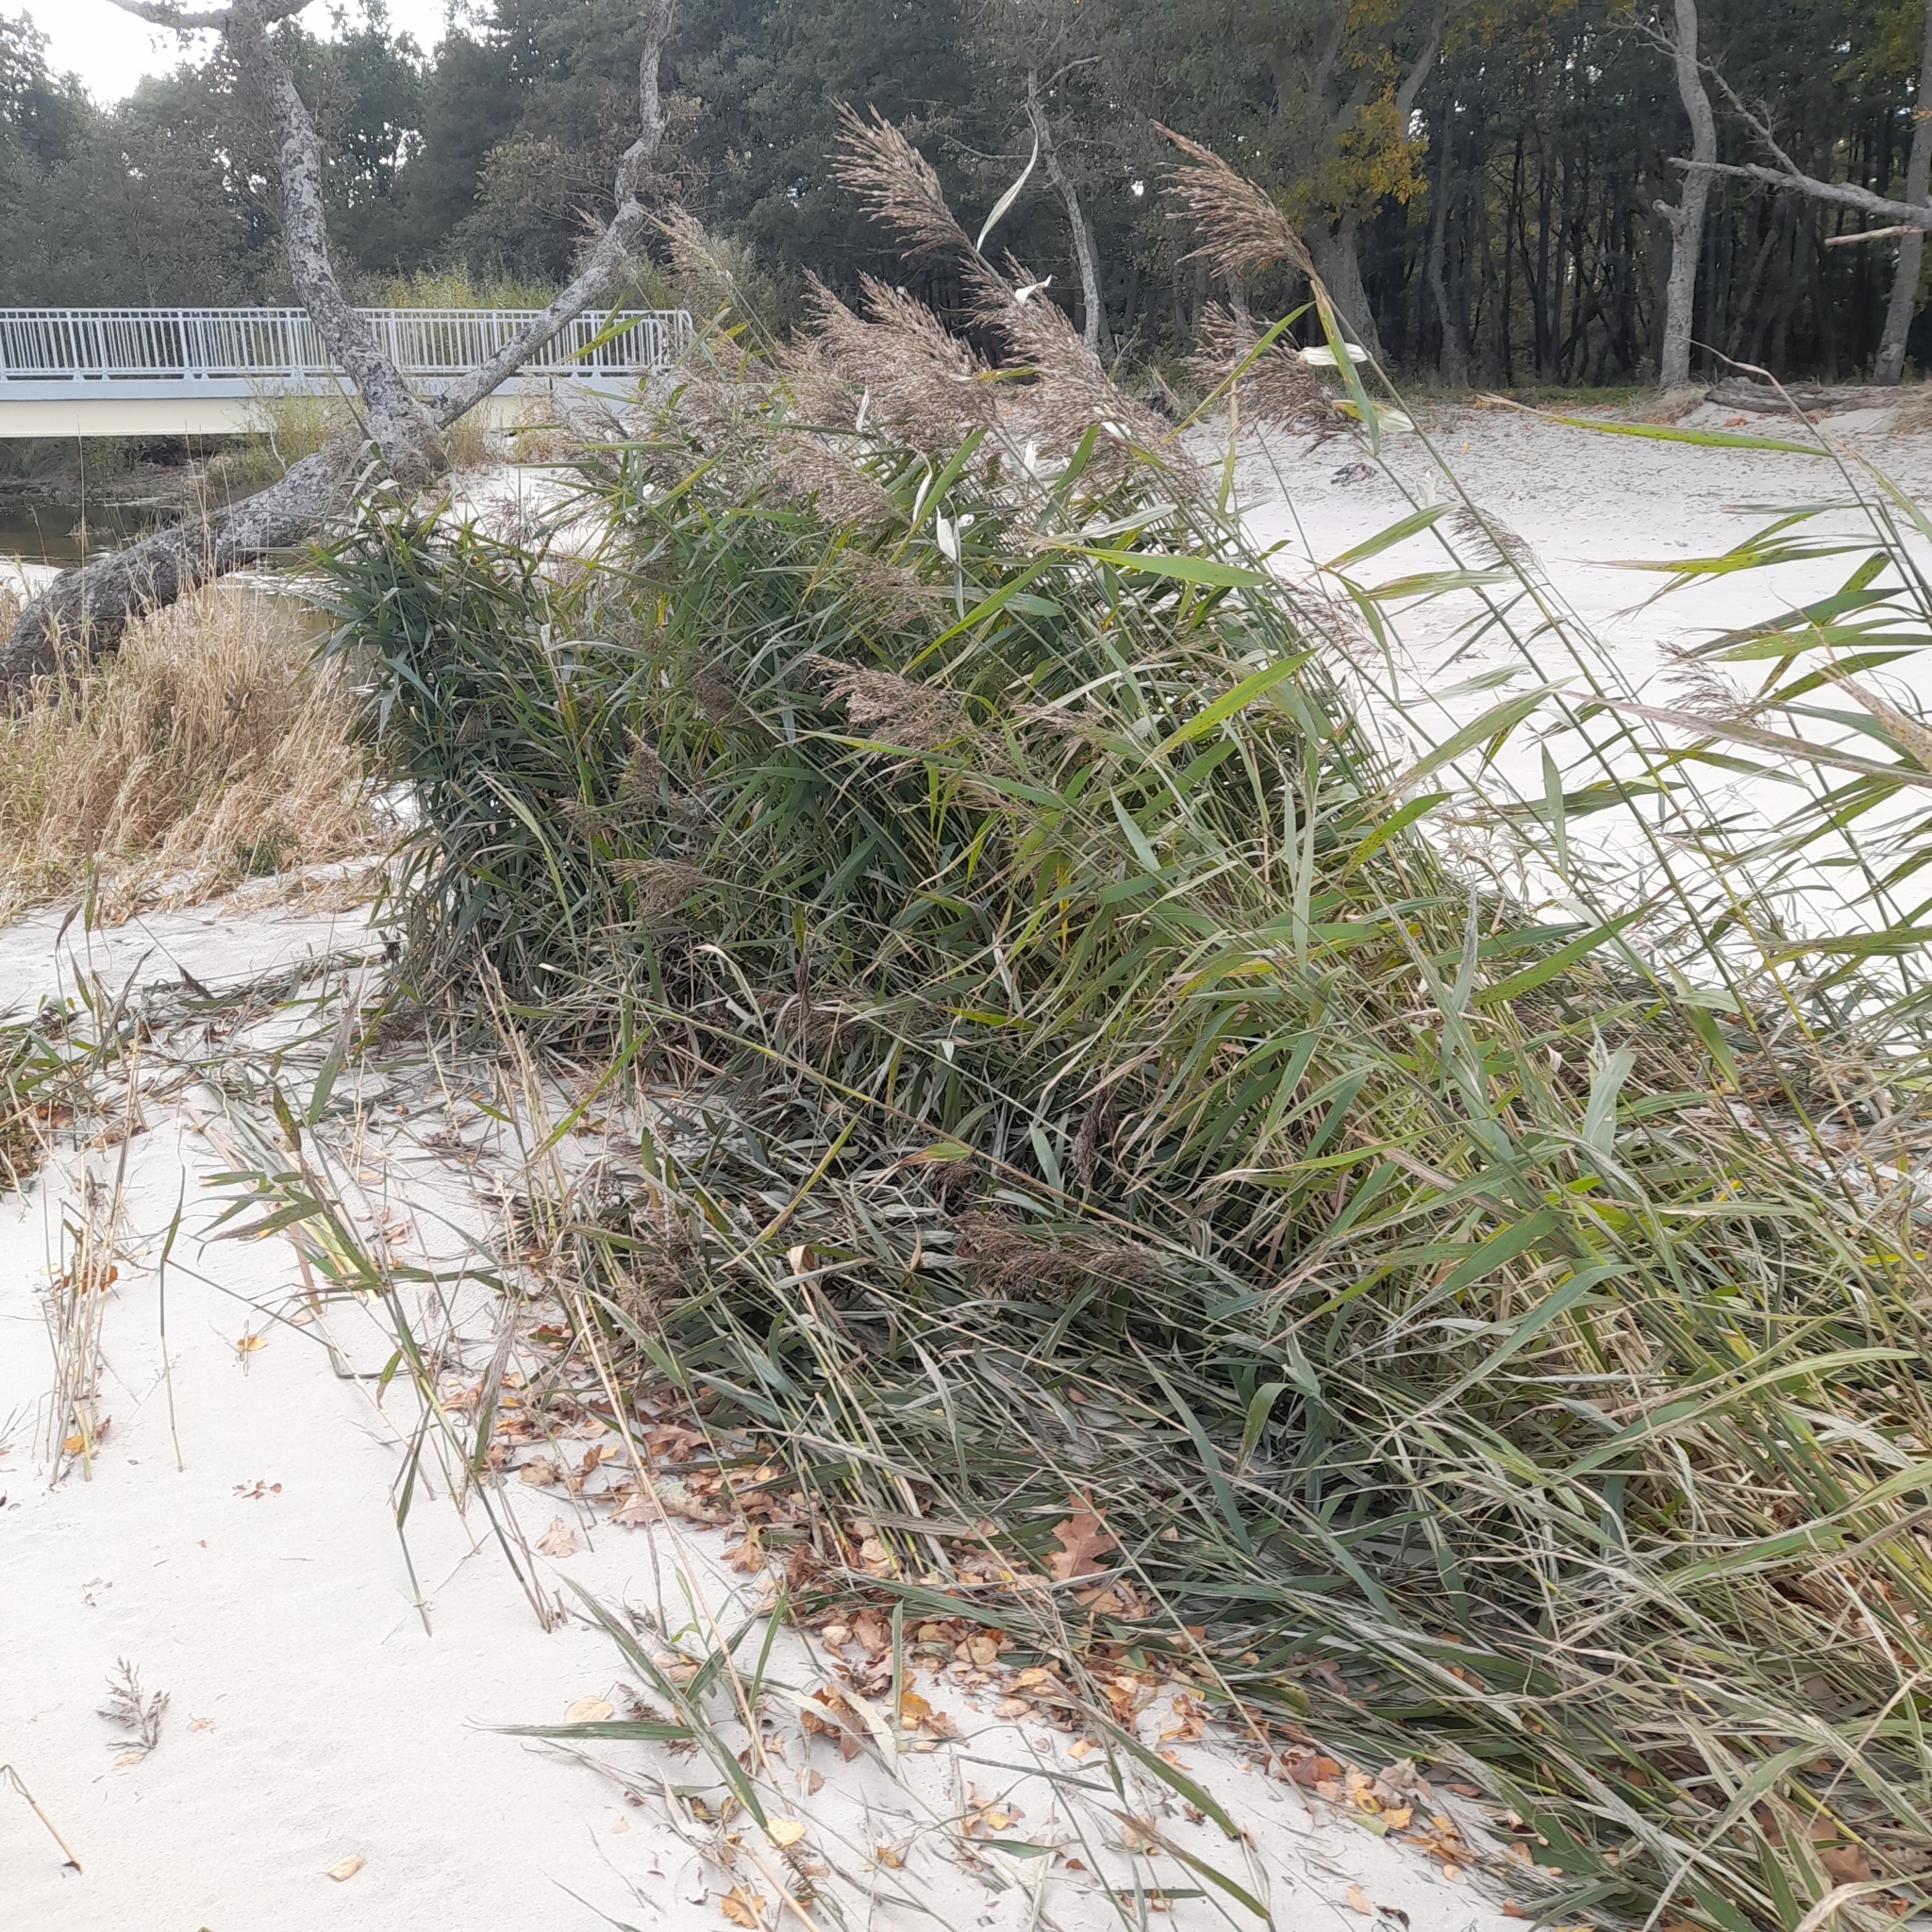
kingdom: Plantae
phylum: Tracheophyta
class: Liliopsida
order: Poales
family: Poaceae
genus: Phragmites
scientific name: Phragmites australis
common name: Common reed
